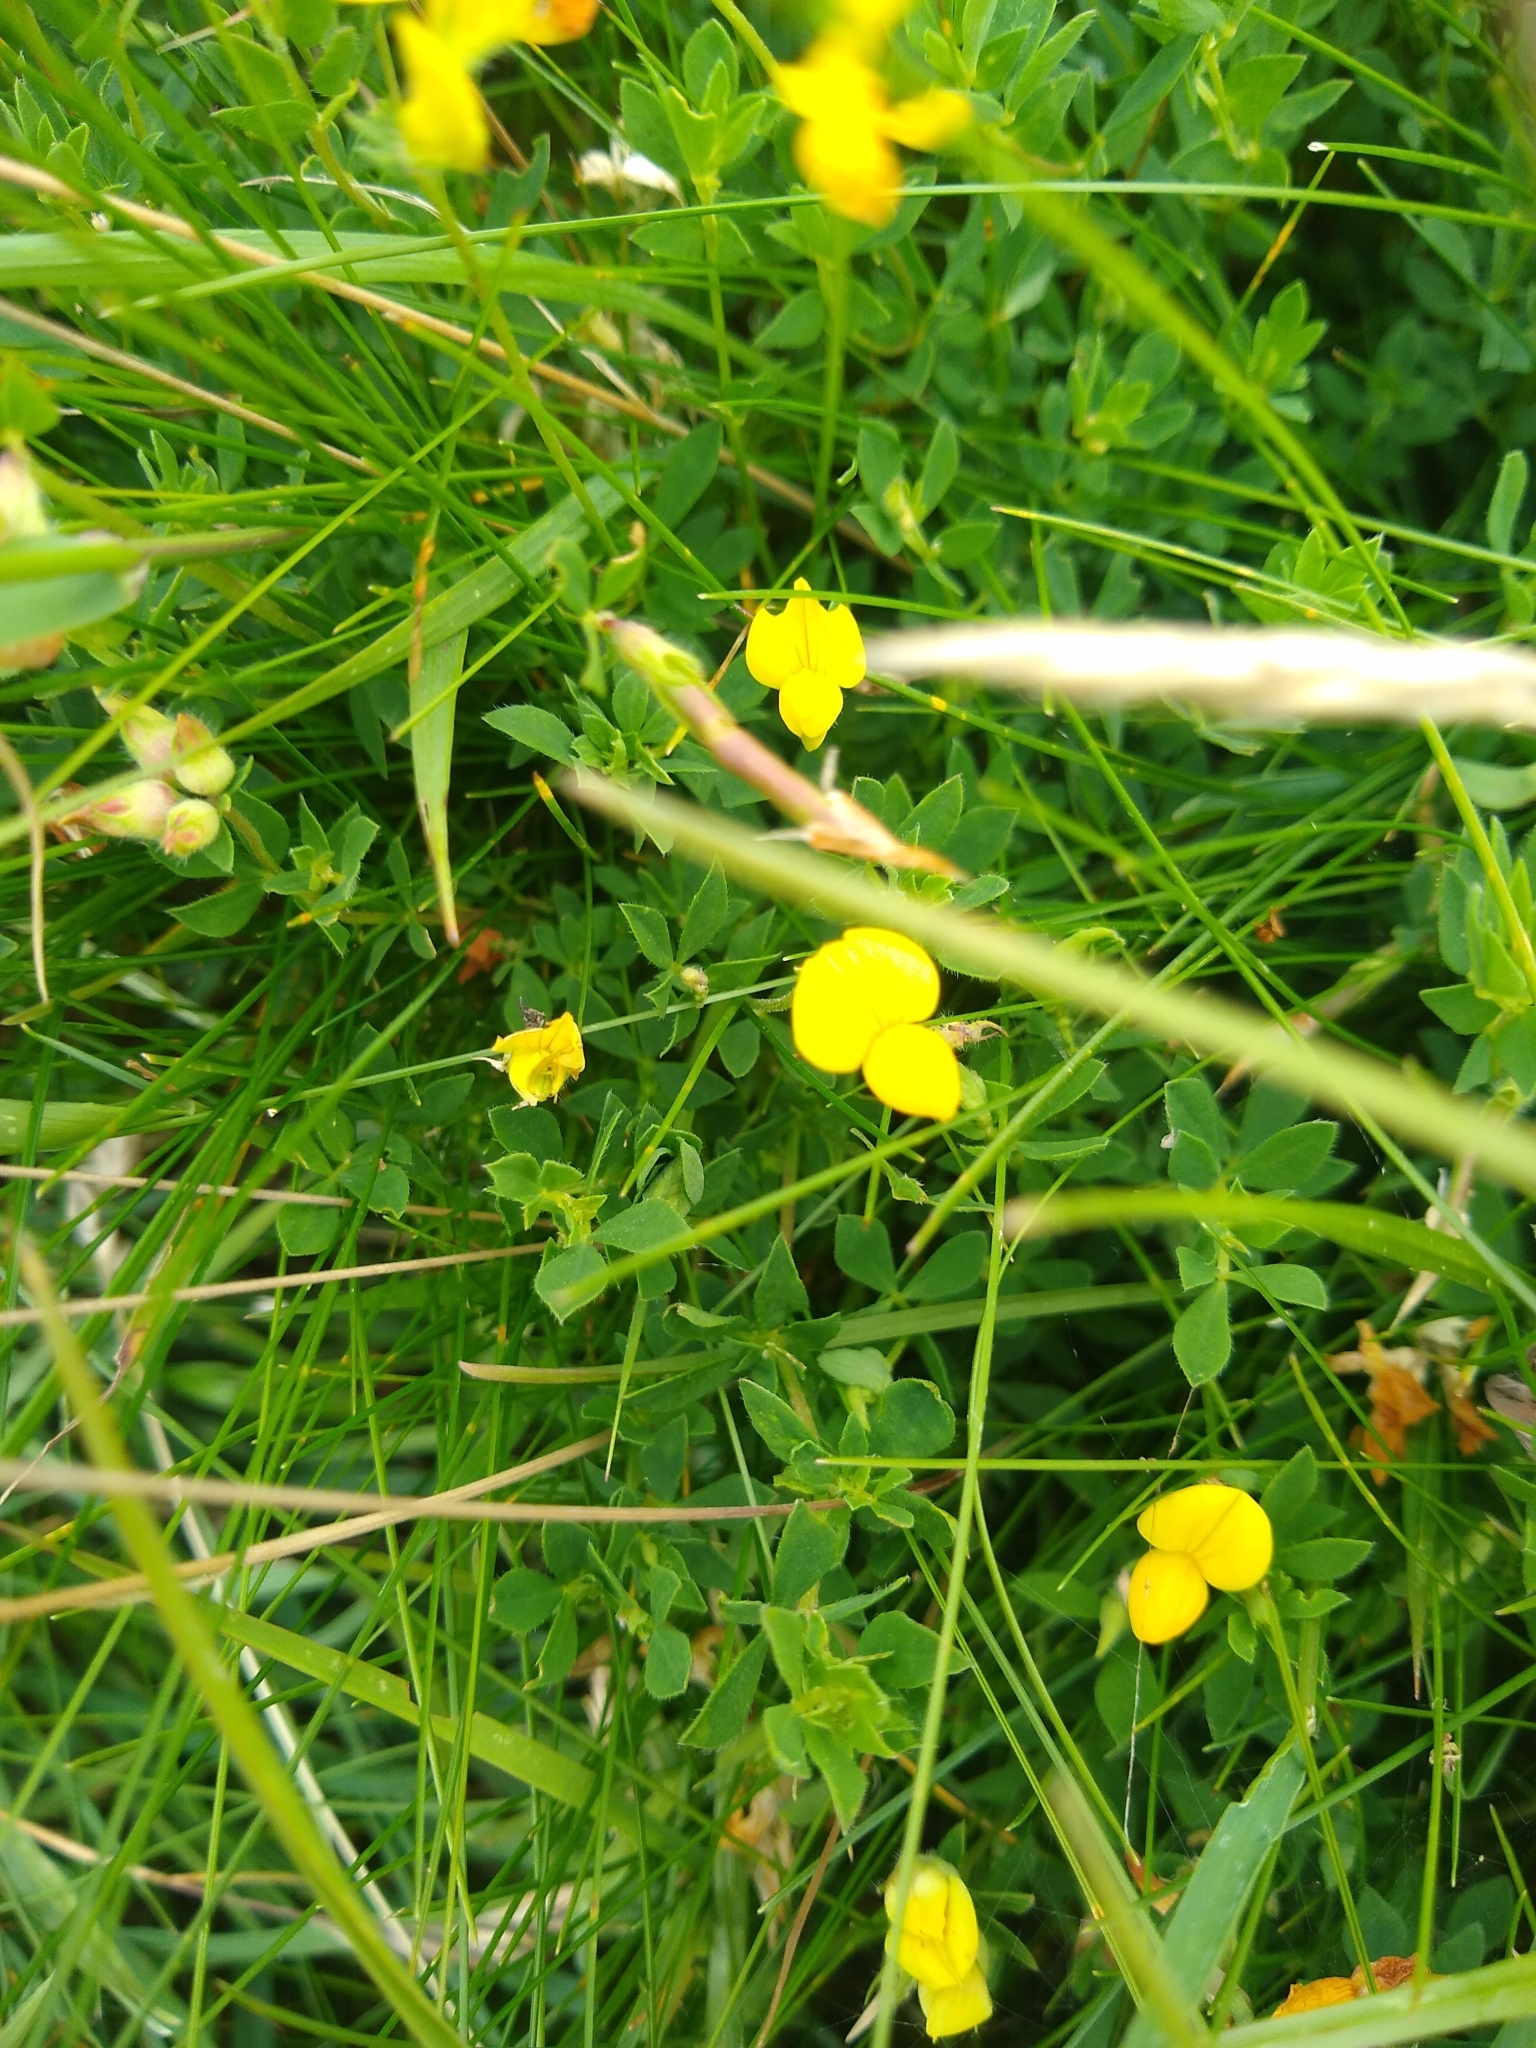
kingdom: Plantae
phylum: Tracheophyta
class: Magnoliopsida
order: Fabales
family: Fabaceae
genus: Lotus
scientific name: Lotus corniculatus
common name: Common bird's-foot-trefoil
